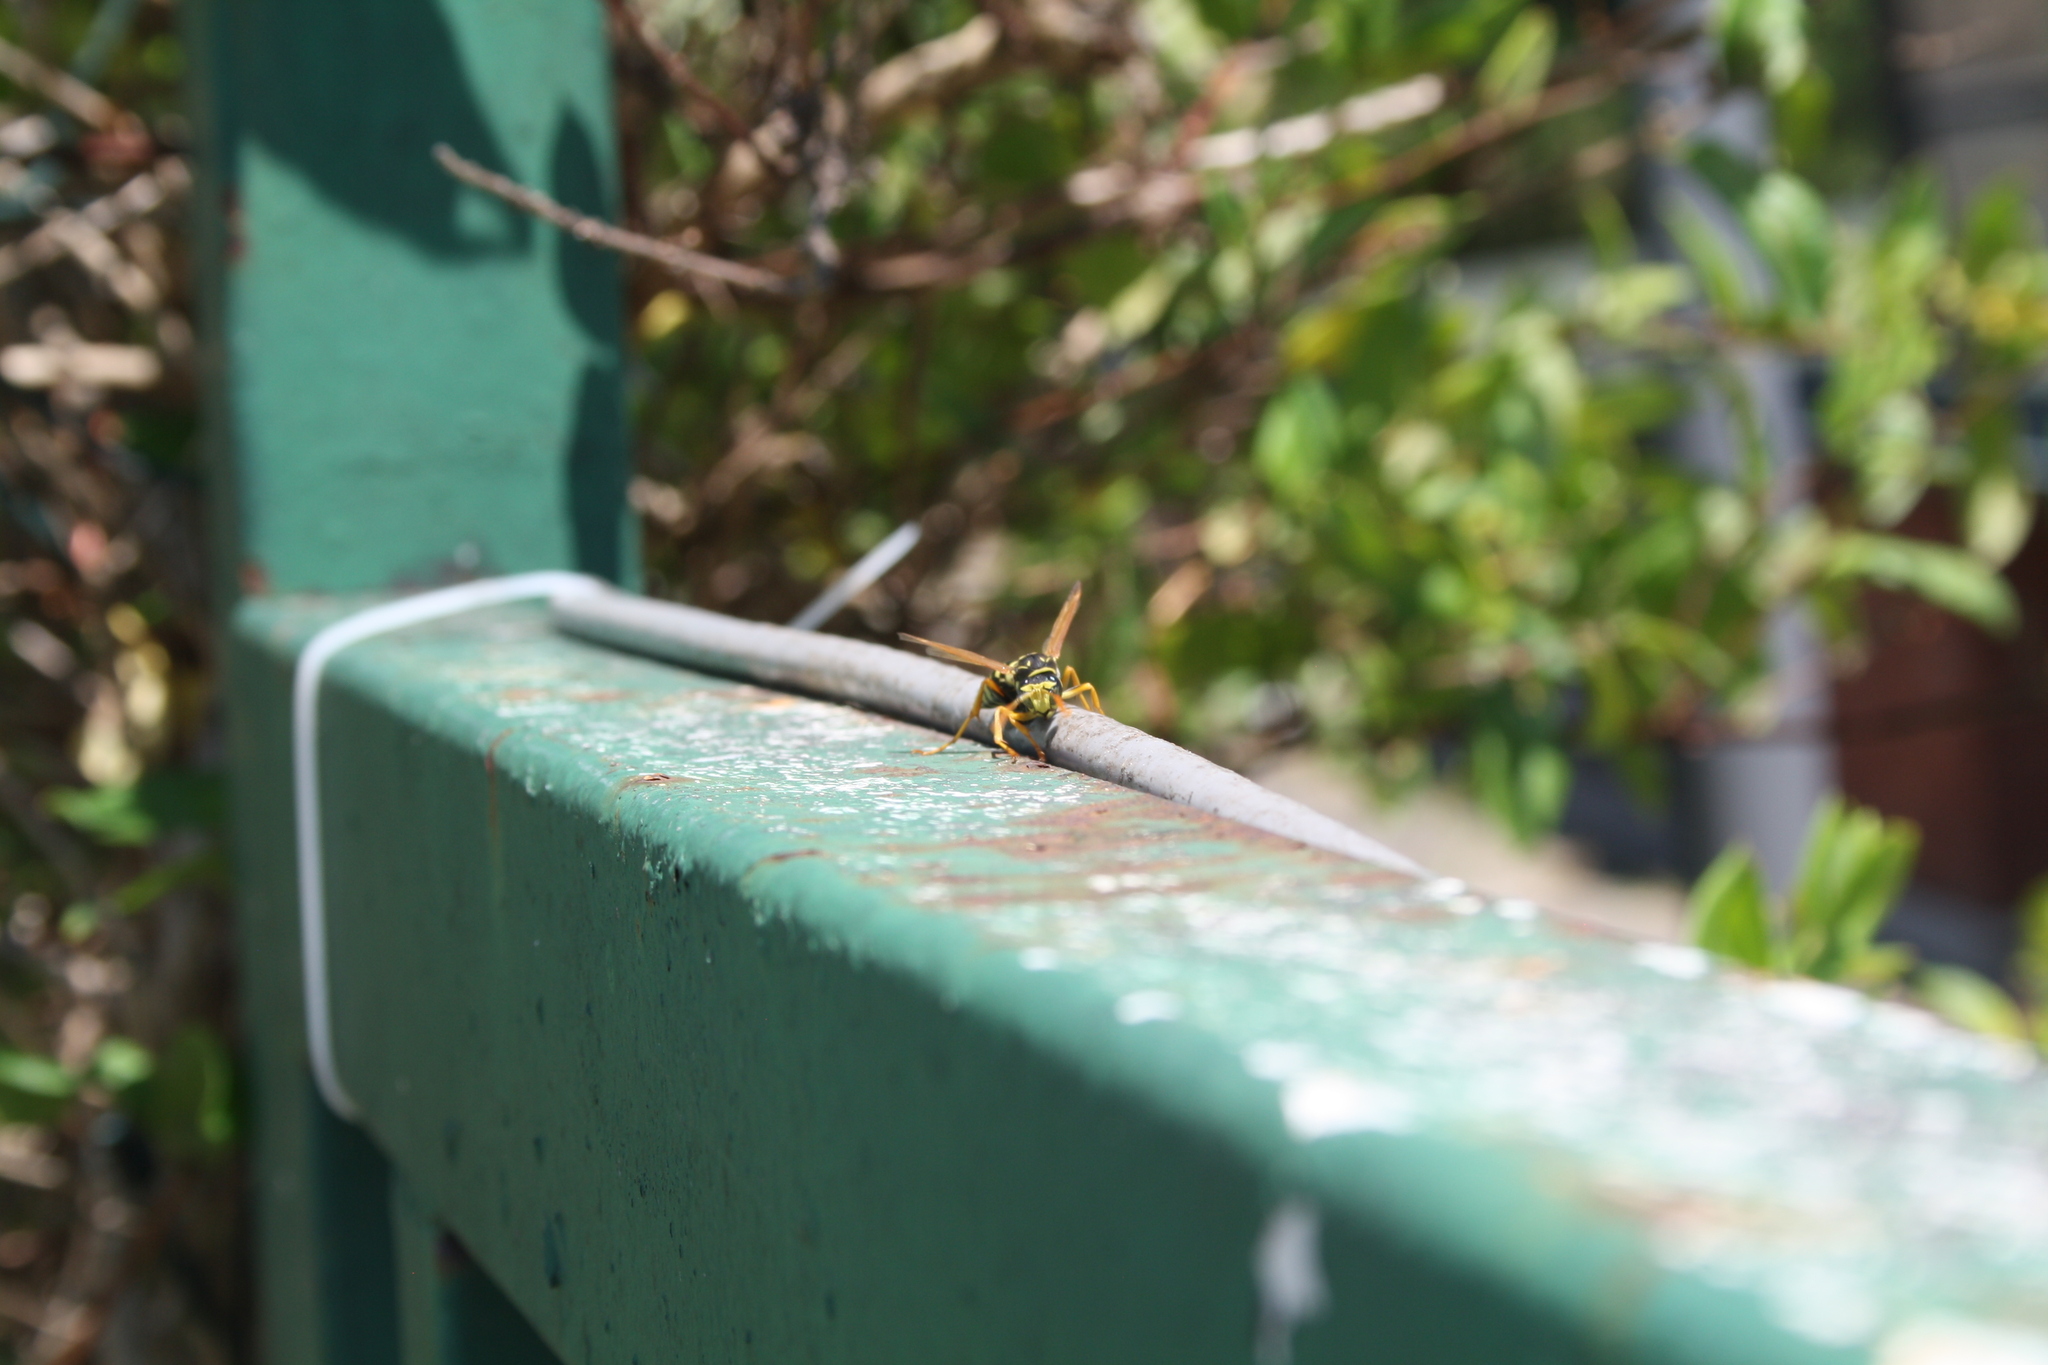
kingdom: Animalia
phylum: Arthropoda
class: Insecta
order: Hymenoptera
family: Eumenidae
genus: Polistes
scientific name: Polistes dominula
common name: Paper wasp
